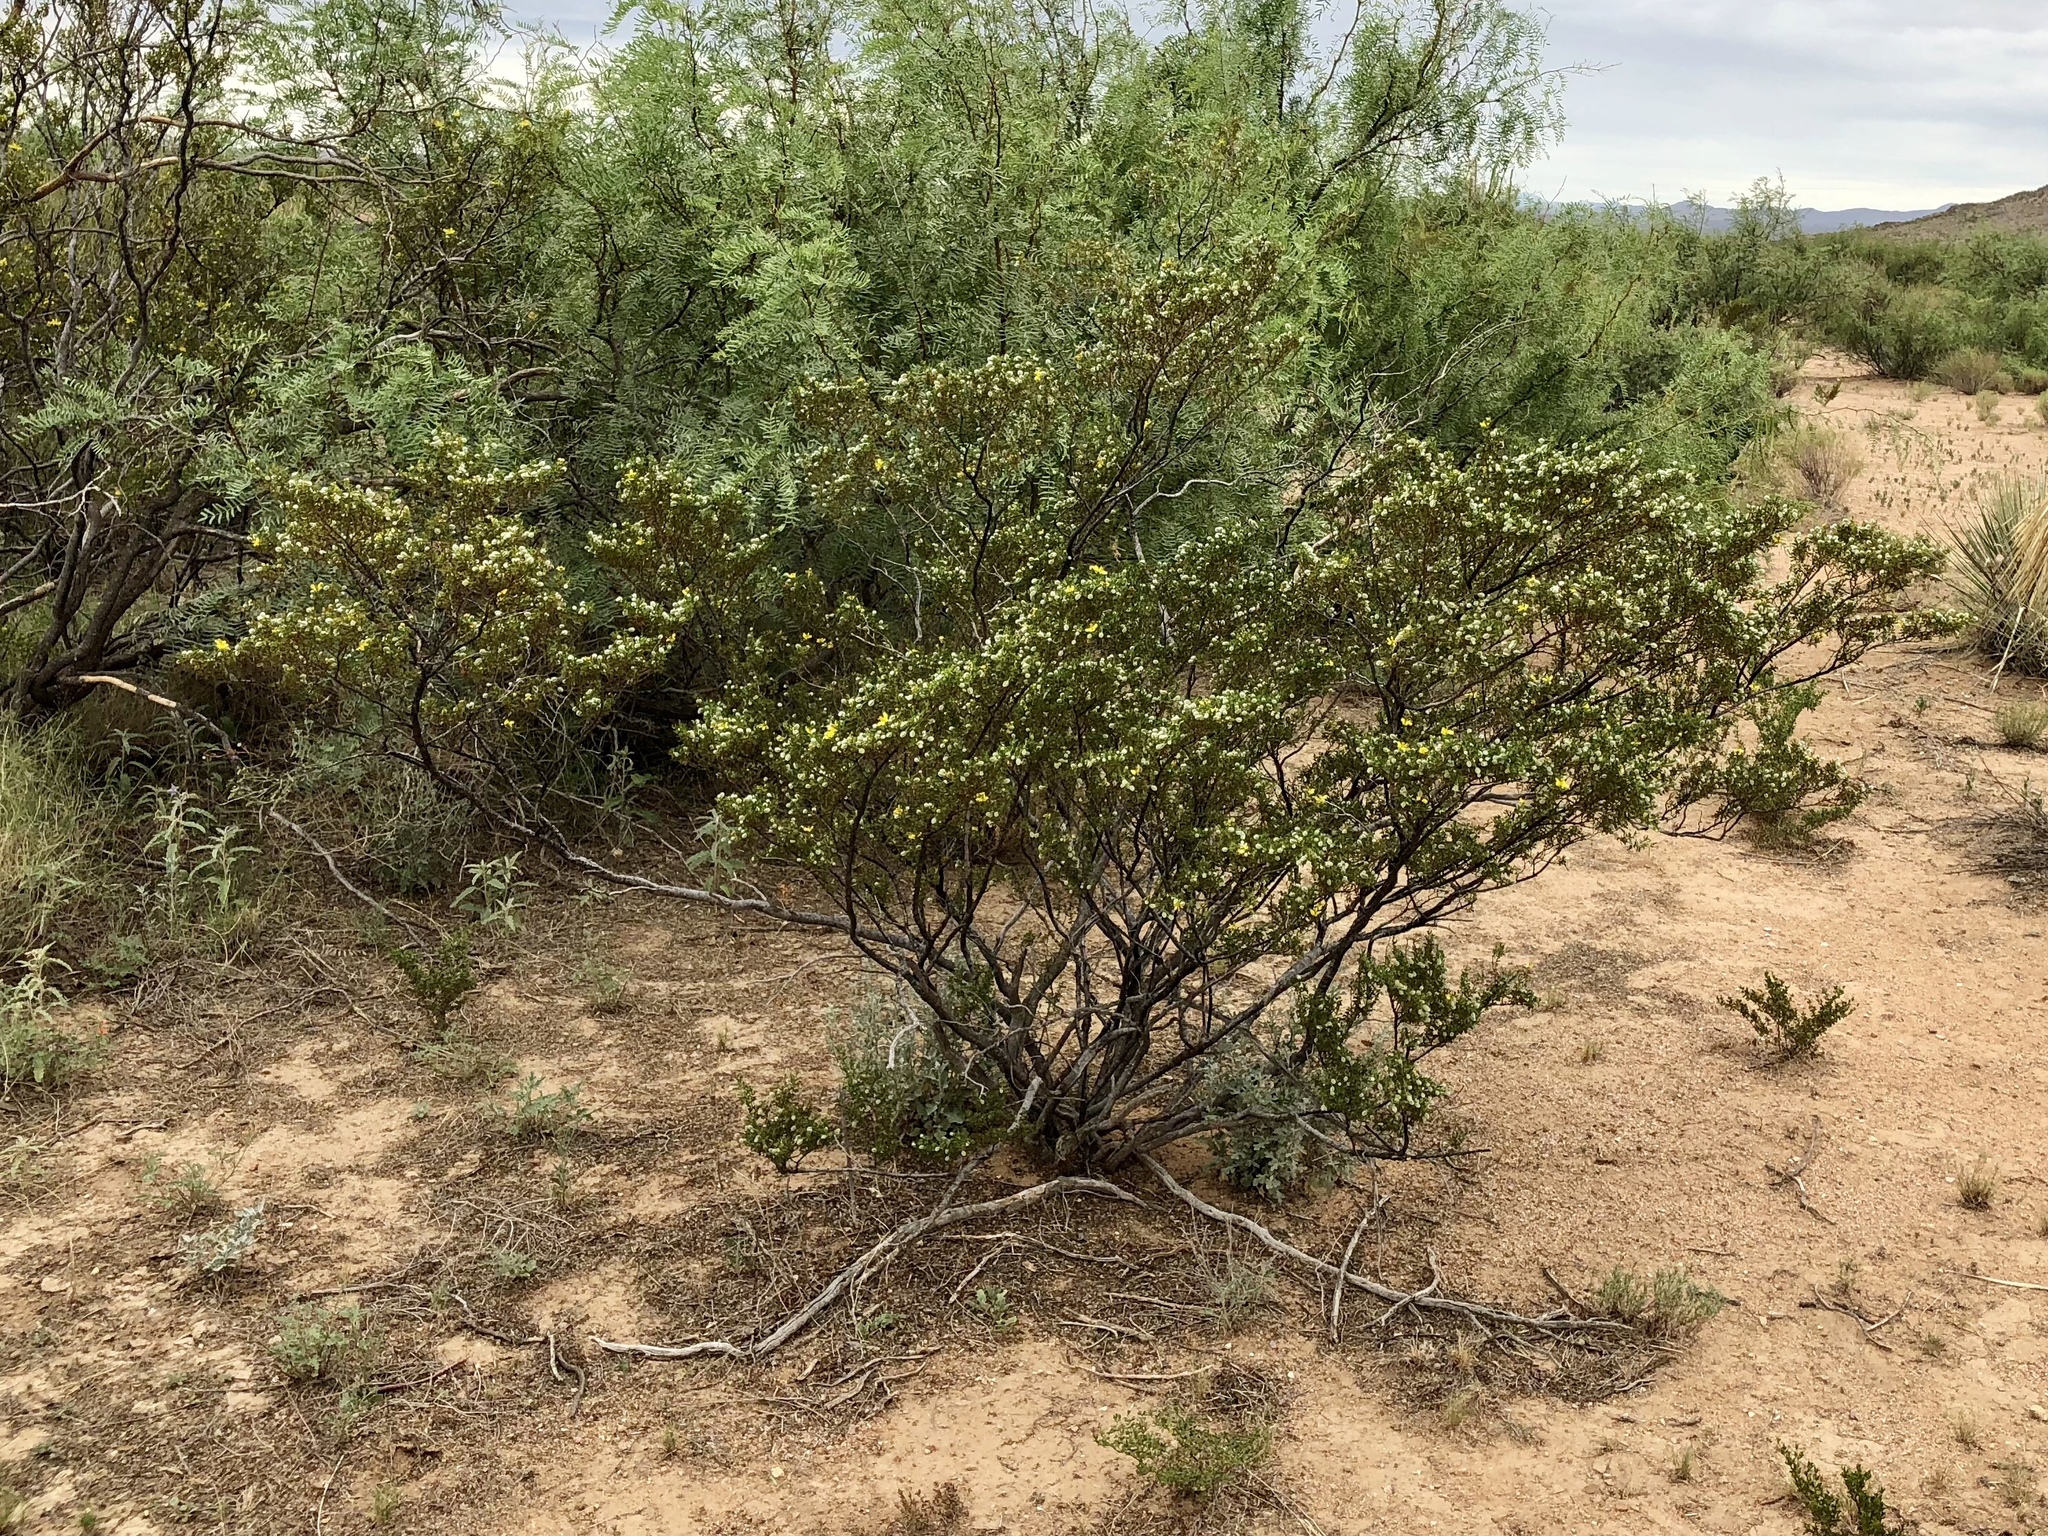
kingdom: Plantae
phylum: Tracheophyta
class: Magnoliopsida
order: Zygophyllales
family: Zygophyllaceae
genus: Larrea
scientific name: Larrea tridentata
